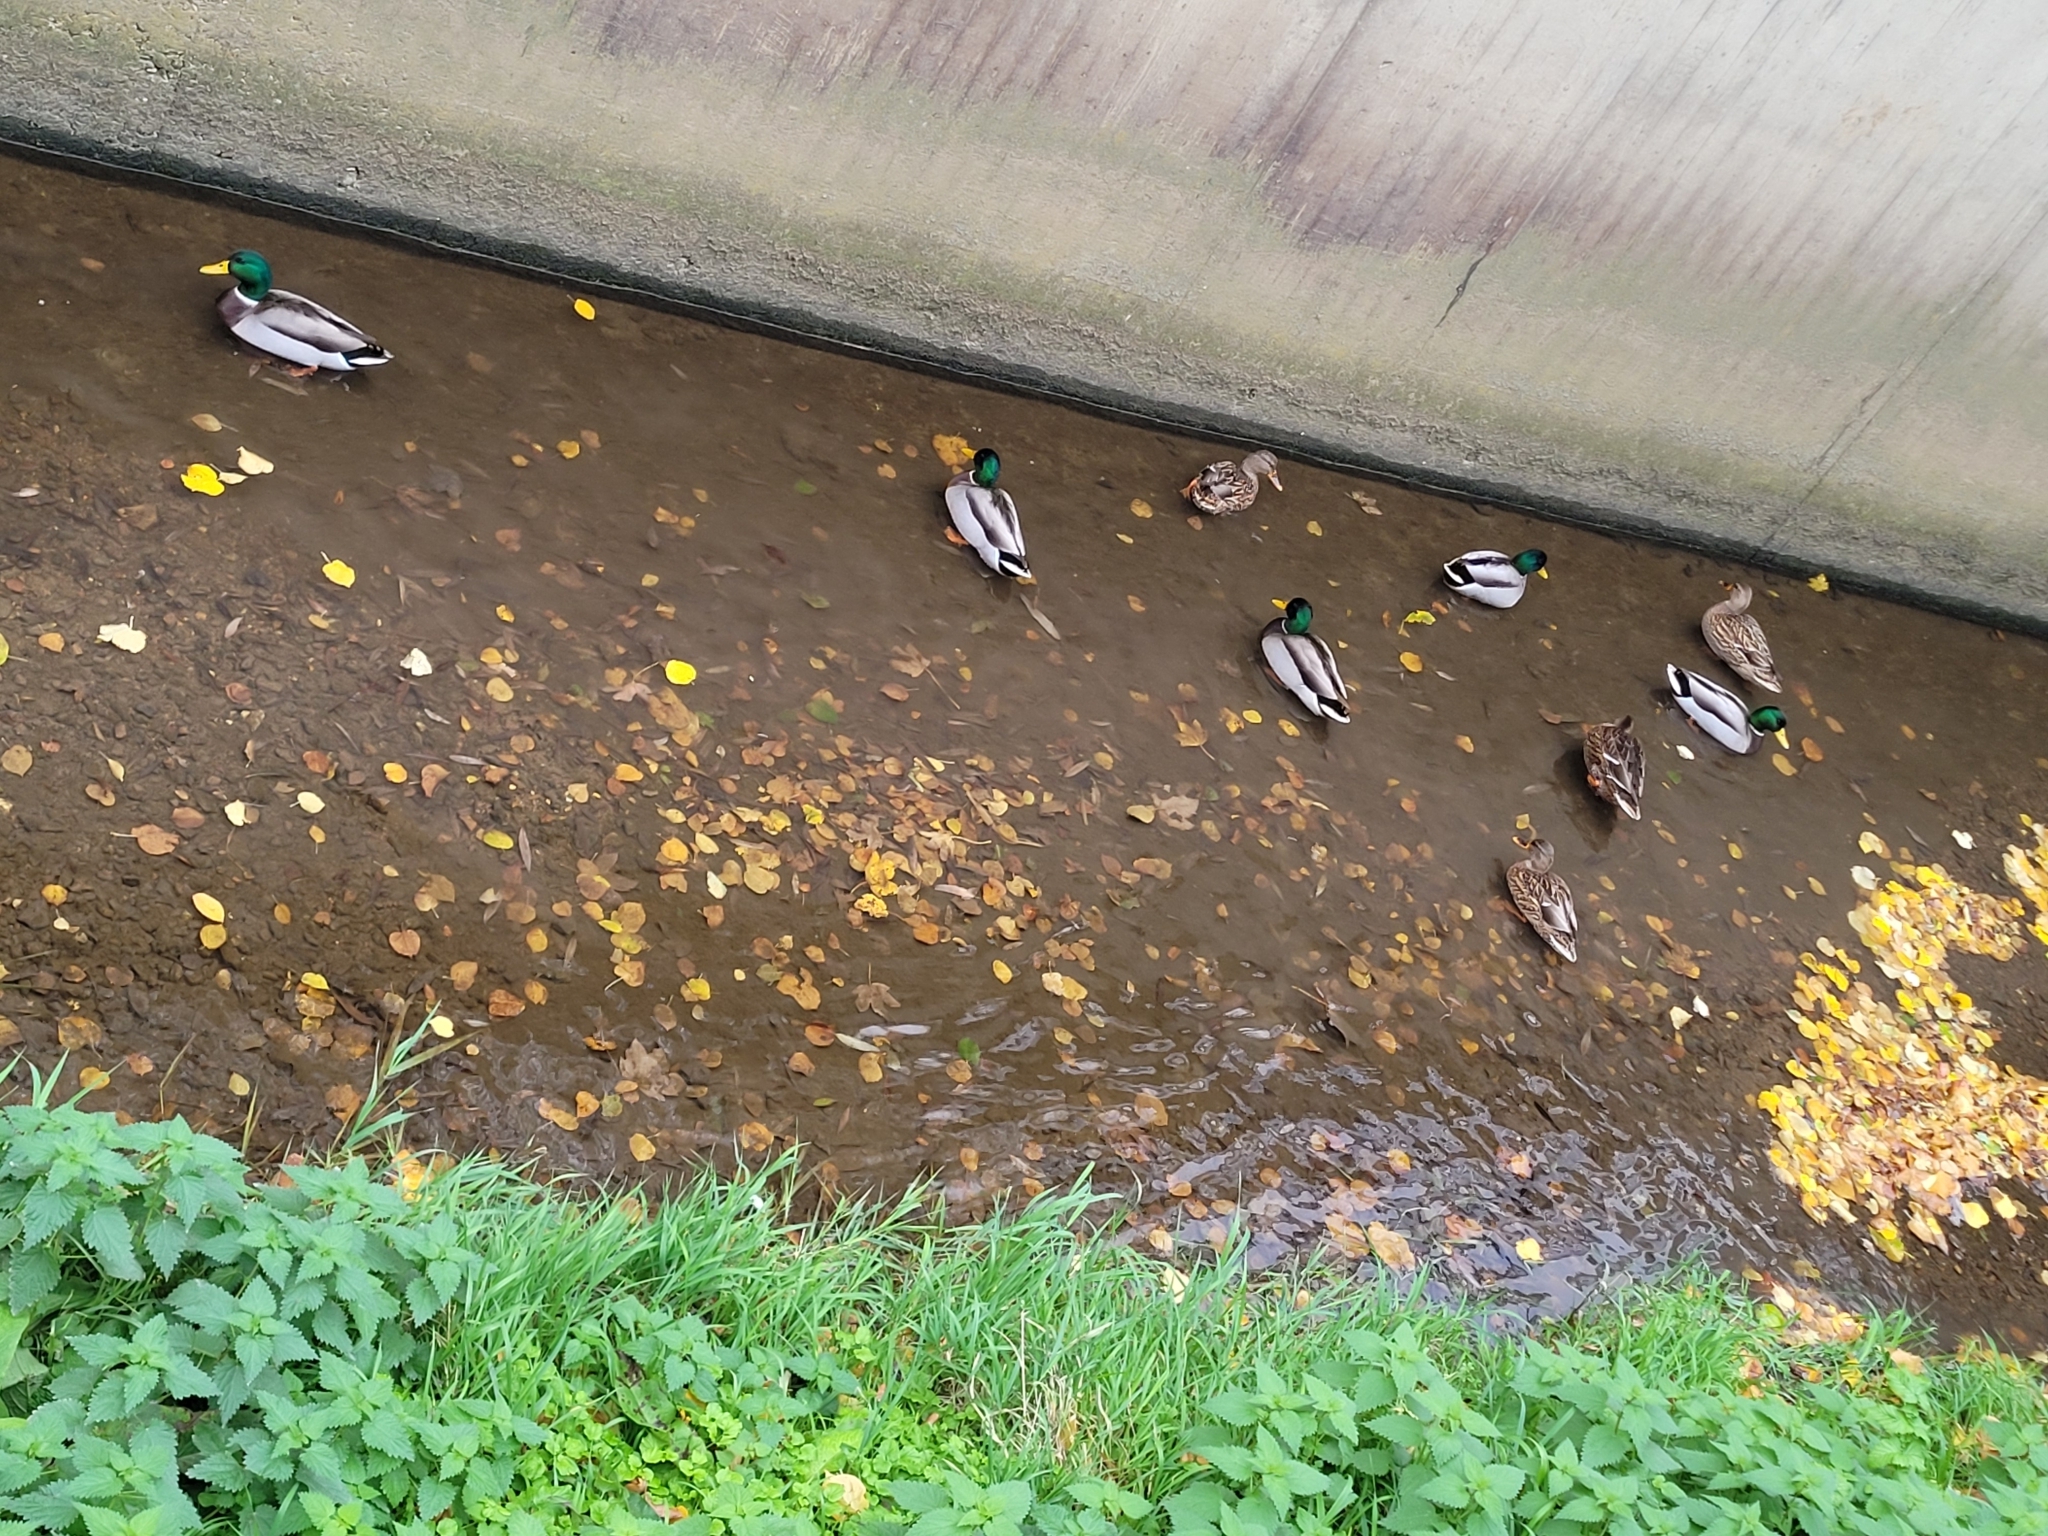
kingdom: Animalia
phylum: Chordata
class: Aves
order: Anseriformes
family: Anatidae
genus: Anas
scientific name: Anas platyrhynchos
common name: Mallard
